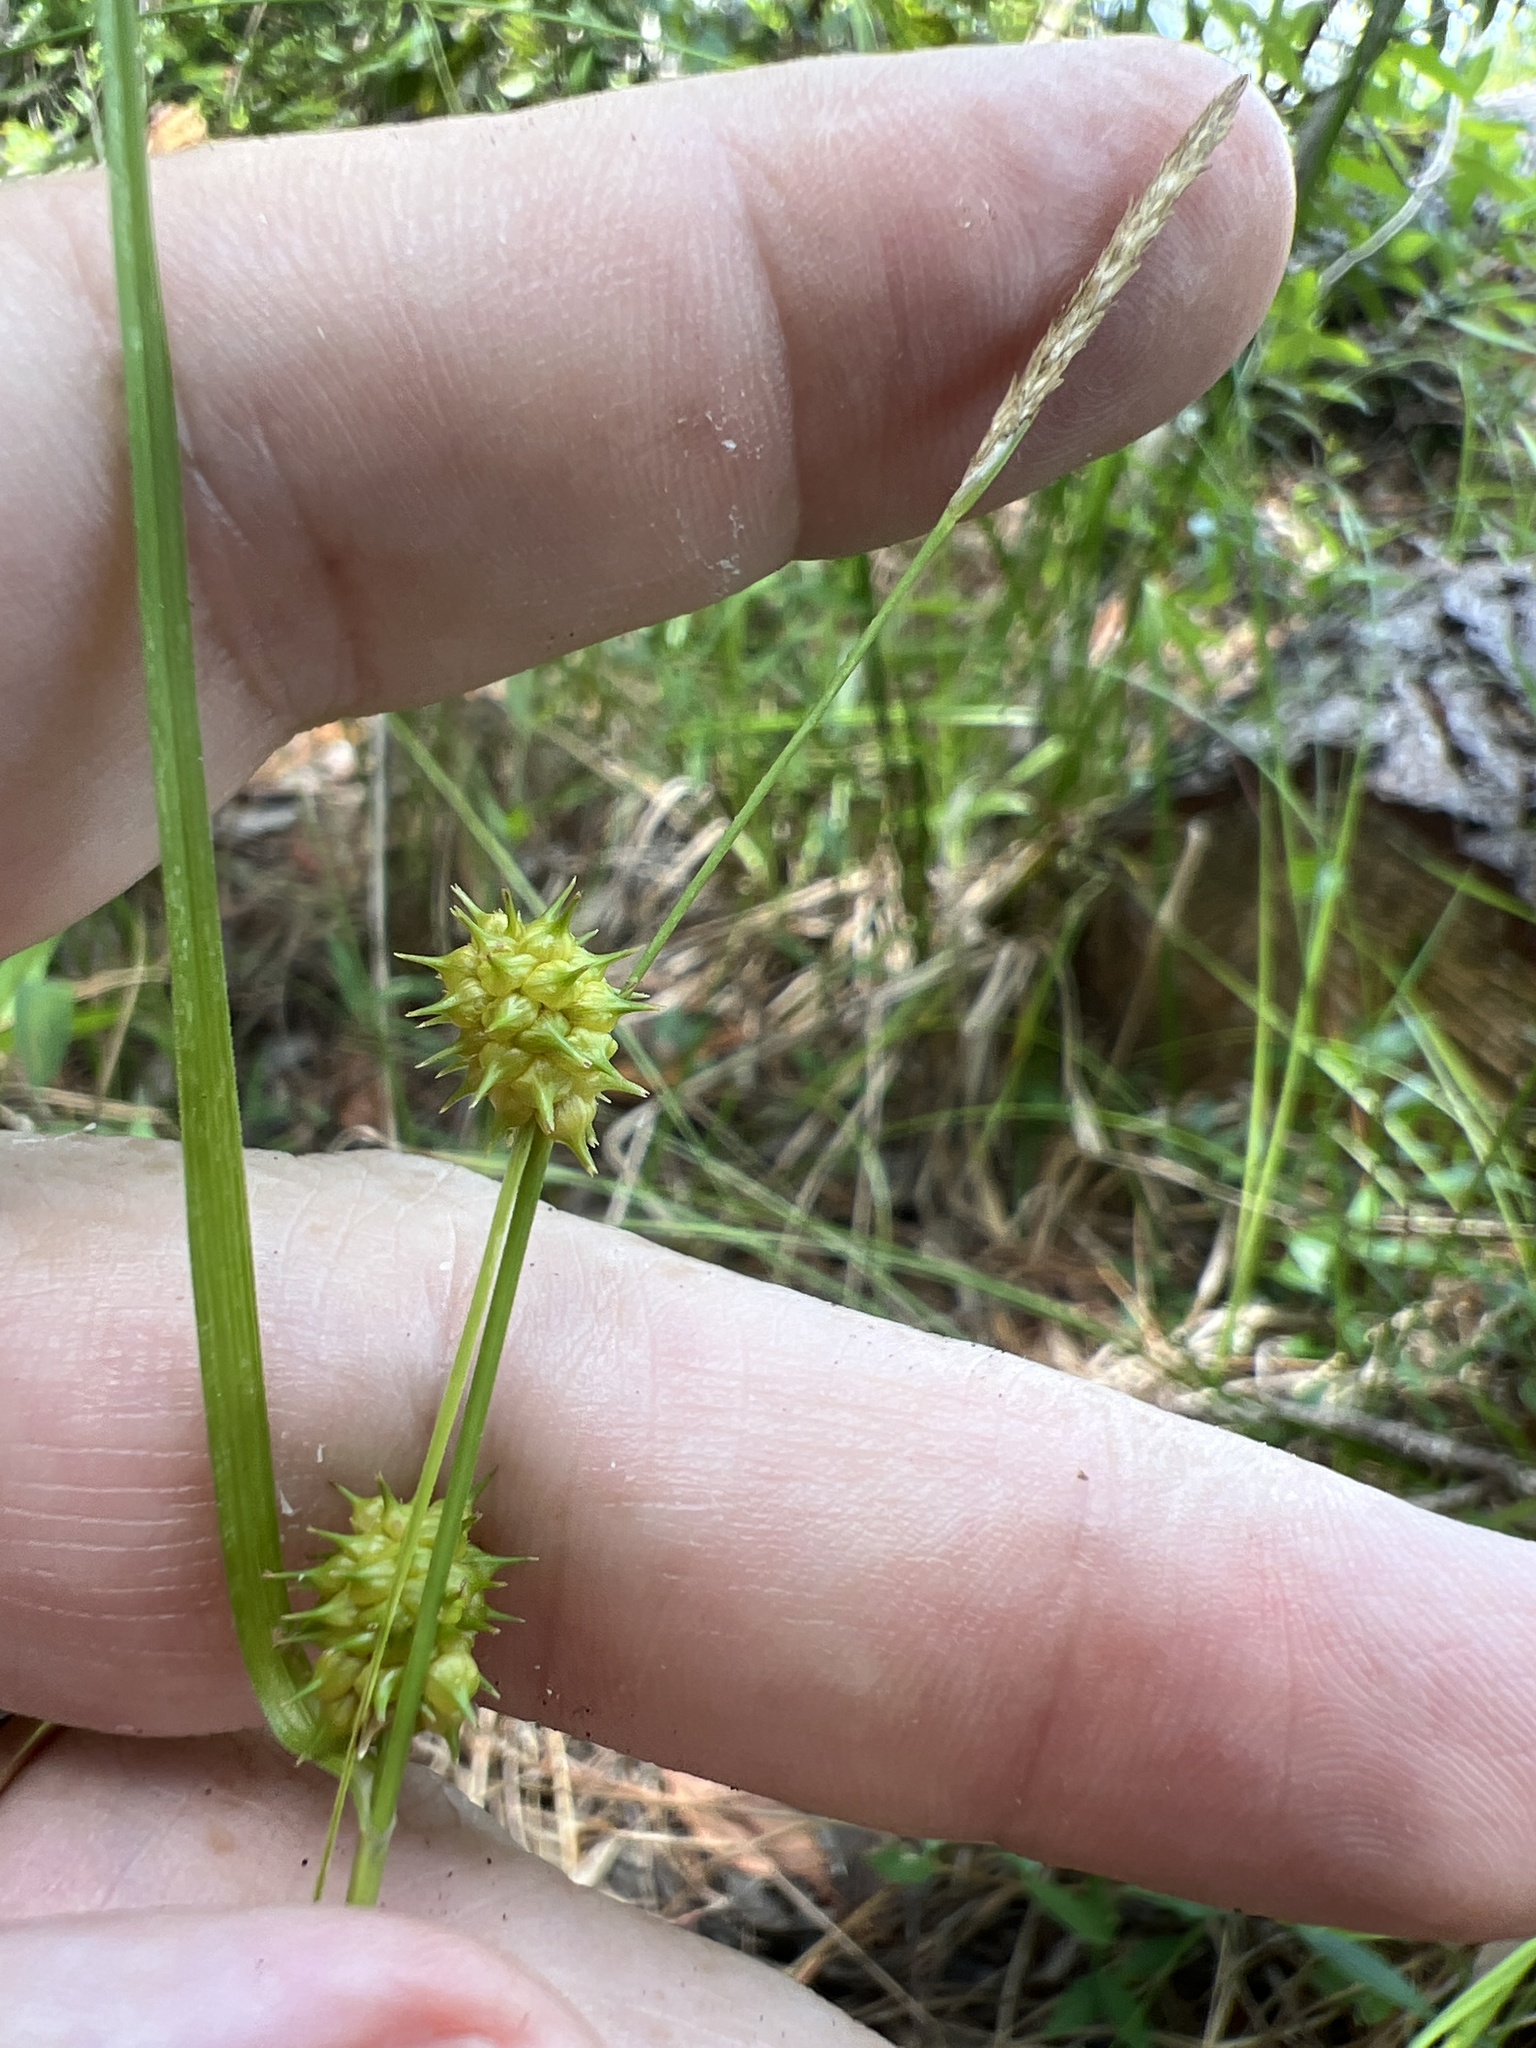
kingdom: Plantae
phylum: Tracheophyta
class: Liliopsida
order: Poales
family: Cyperaceae
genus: Carex
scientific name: Carex lutea
